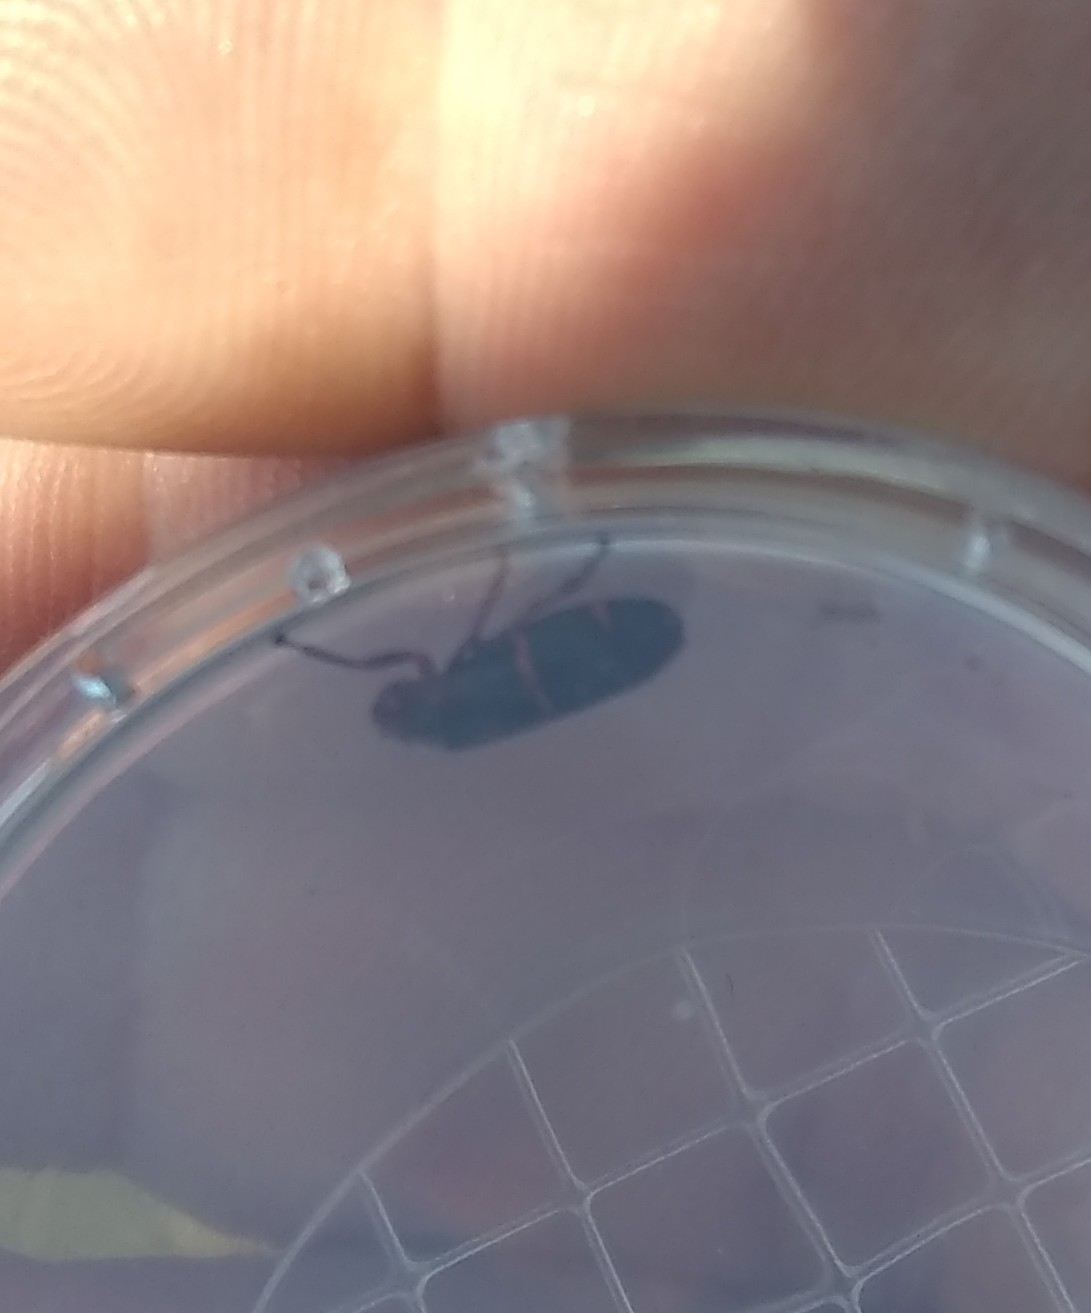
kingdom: Animalia
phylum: Arthropoda
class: Insecta
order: Hemiptera
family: Cercopidae
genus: Prosapia
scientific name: Prosapia bicincta
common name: Twolined spittlebug
